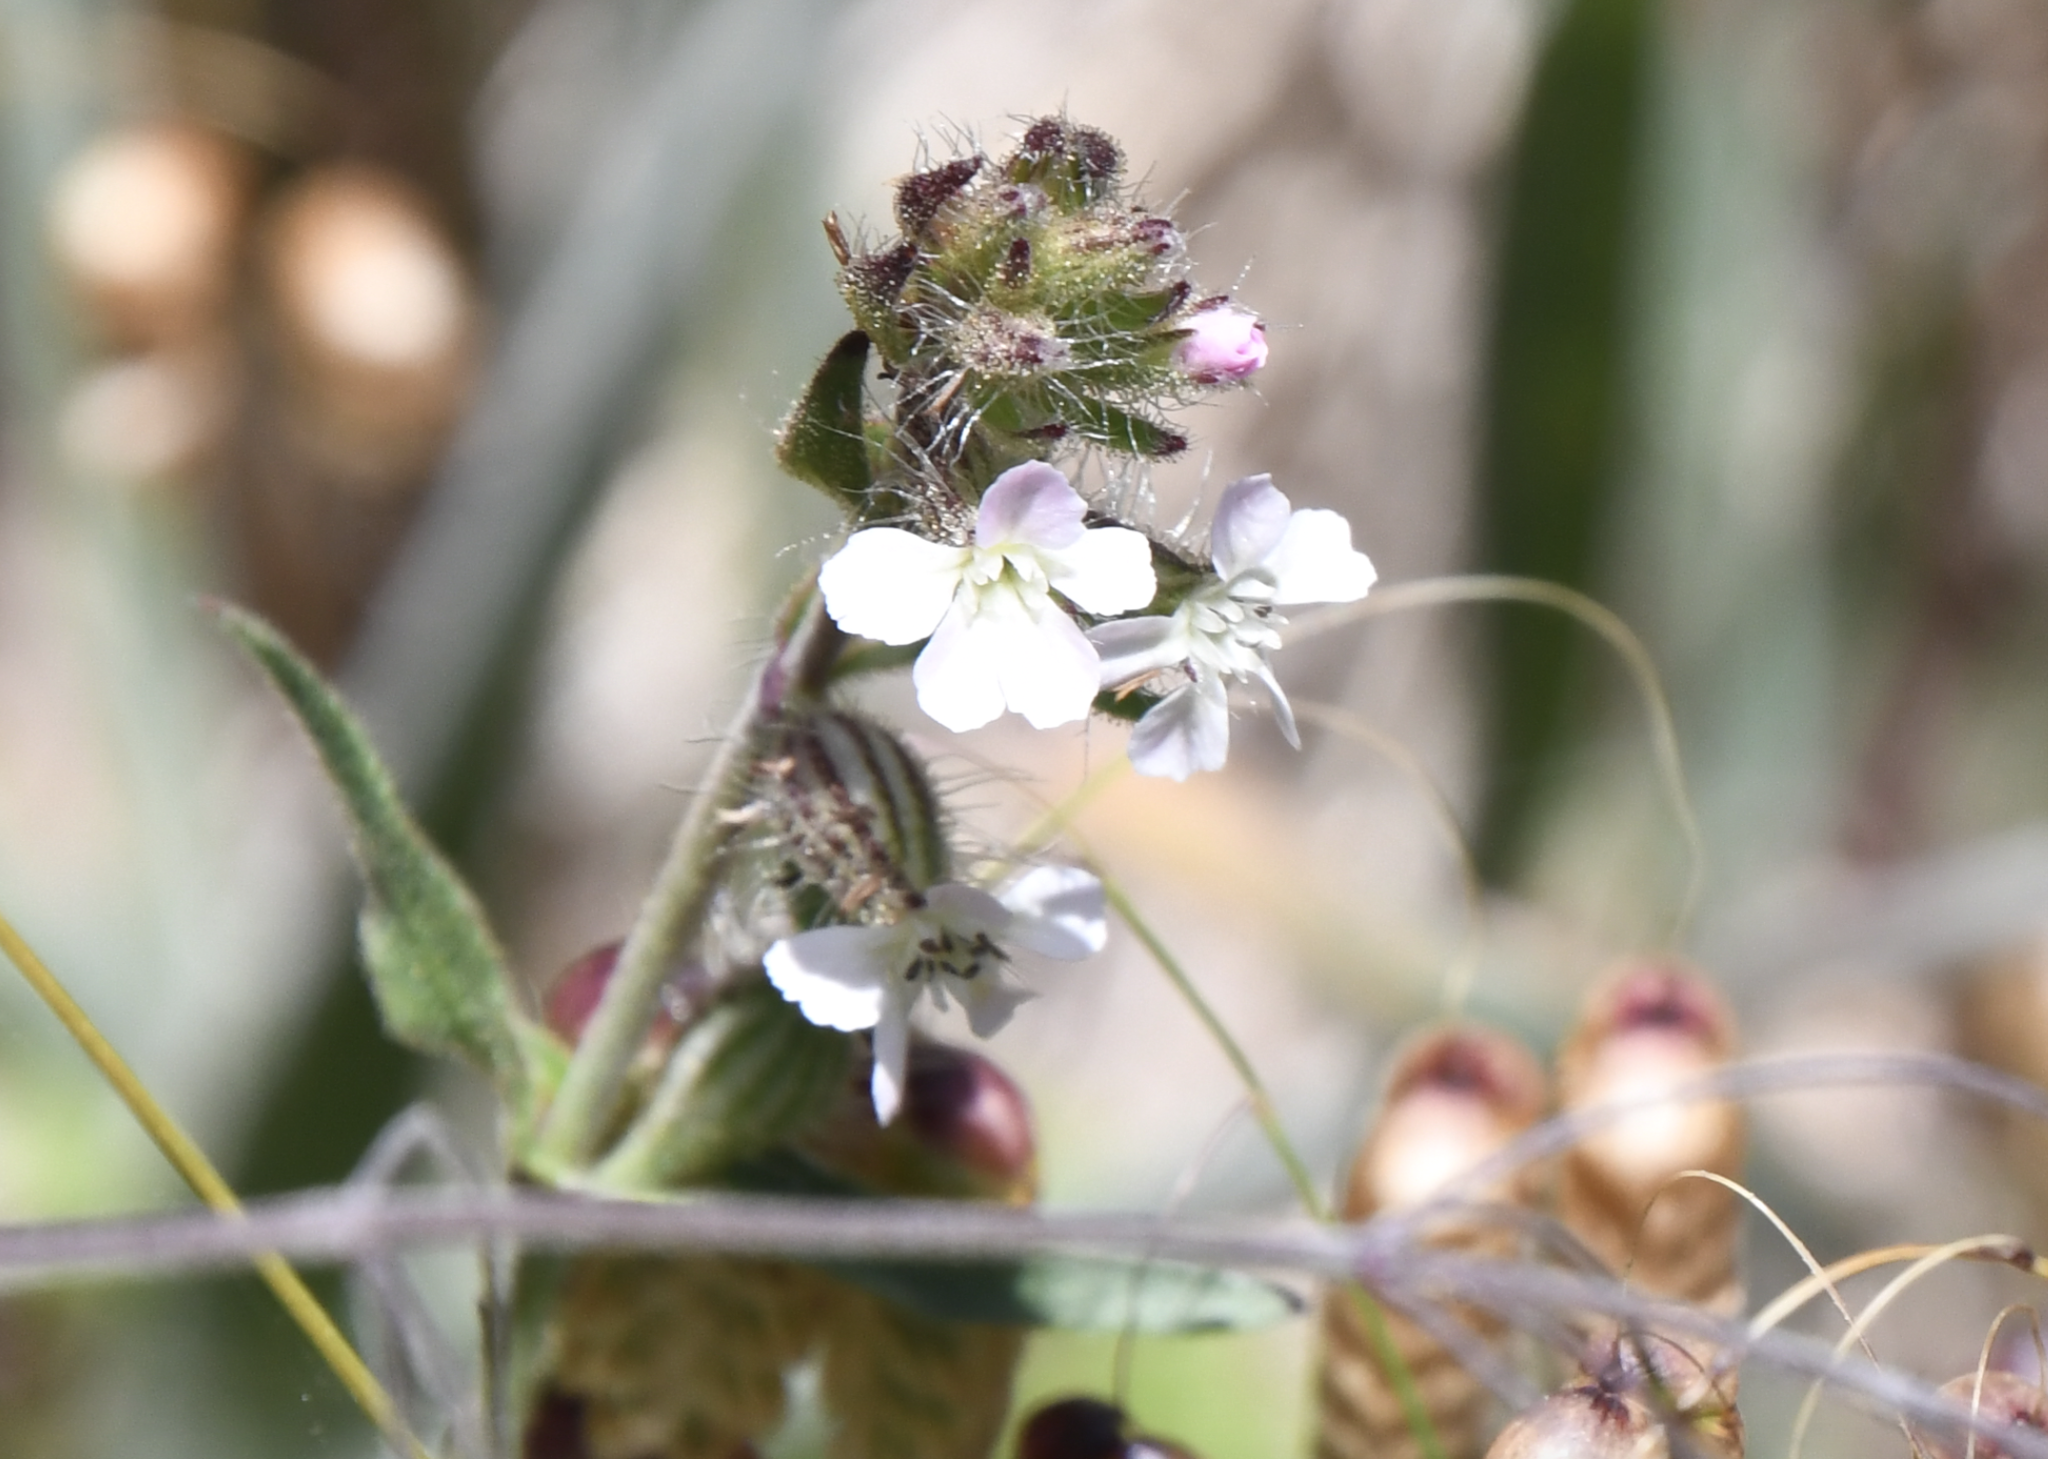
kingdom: Plantae
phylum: Tracheophyta
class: Magnoliopsida
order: Caryophyllales
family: Caryophyllaceae
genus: Silene
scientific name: Silene gallica
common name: Small-flowered catchfly
